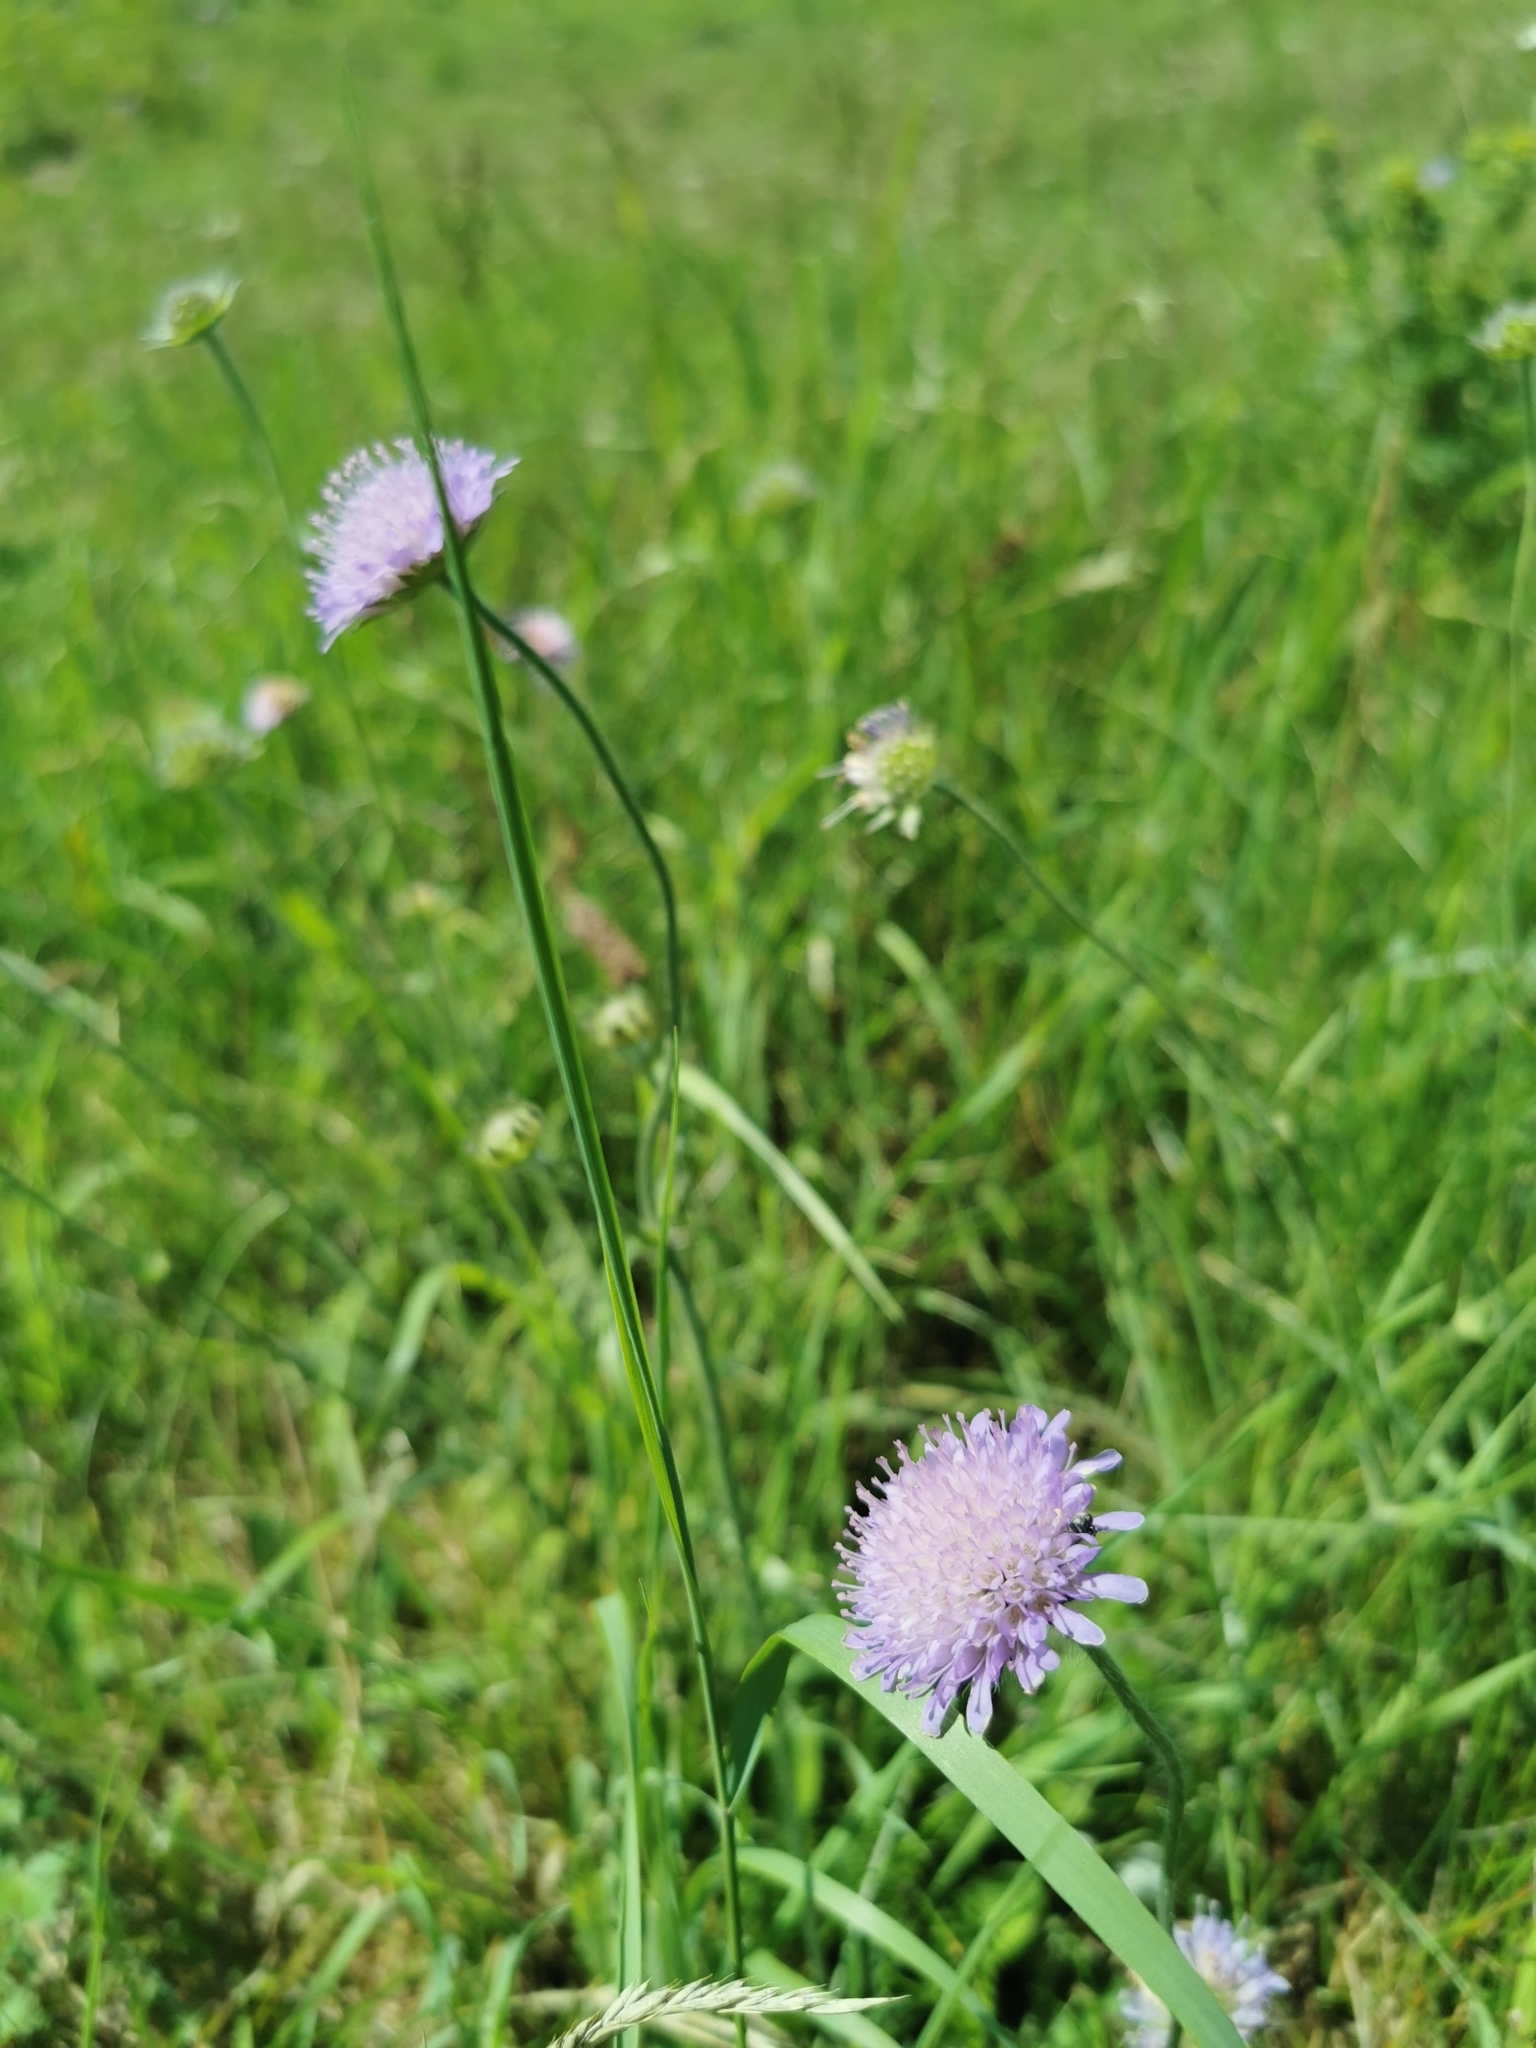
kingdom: Plantae
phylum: Tracheophyta
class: Magnoliopsida
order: Dipsacales
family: Caprifoliaceae
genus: Knautia
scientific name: Knautia arvensis
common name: Field scabiosa
